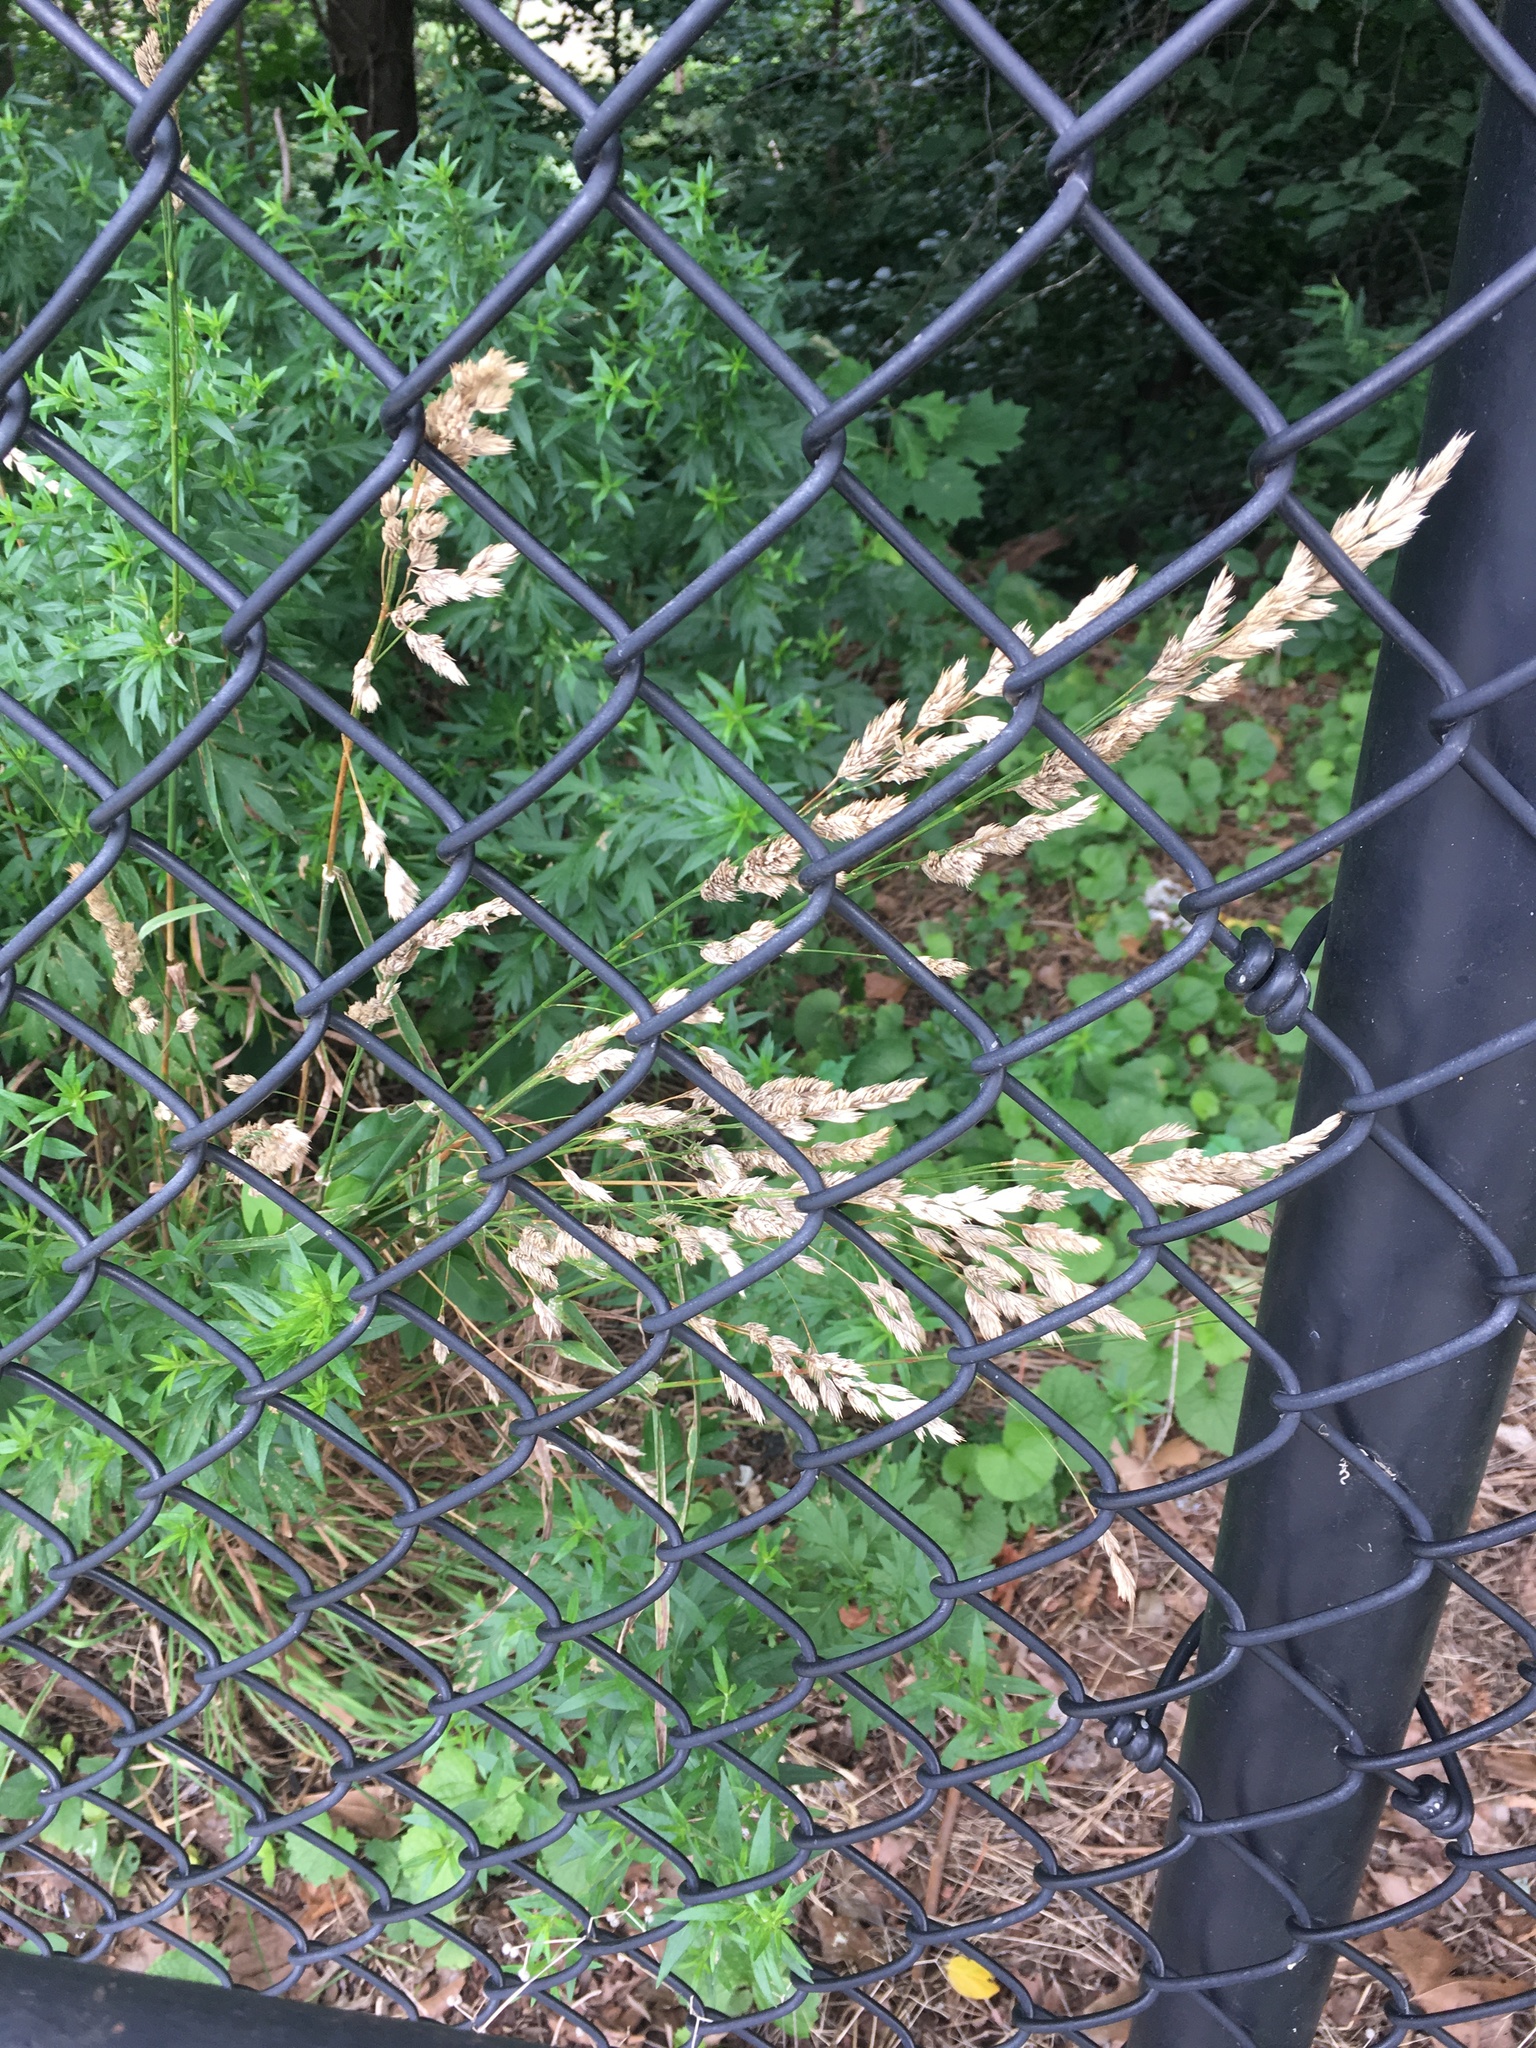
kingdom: Plantae
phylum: Tracheophyta
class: Liliopsida
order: Poales
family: Poaceae
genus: Dactylis
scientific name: Dactylis glomerata
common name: Orchardgrass
